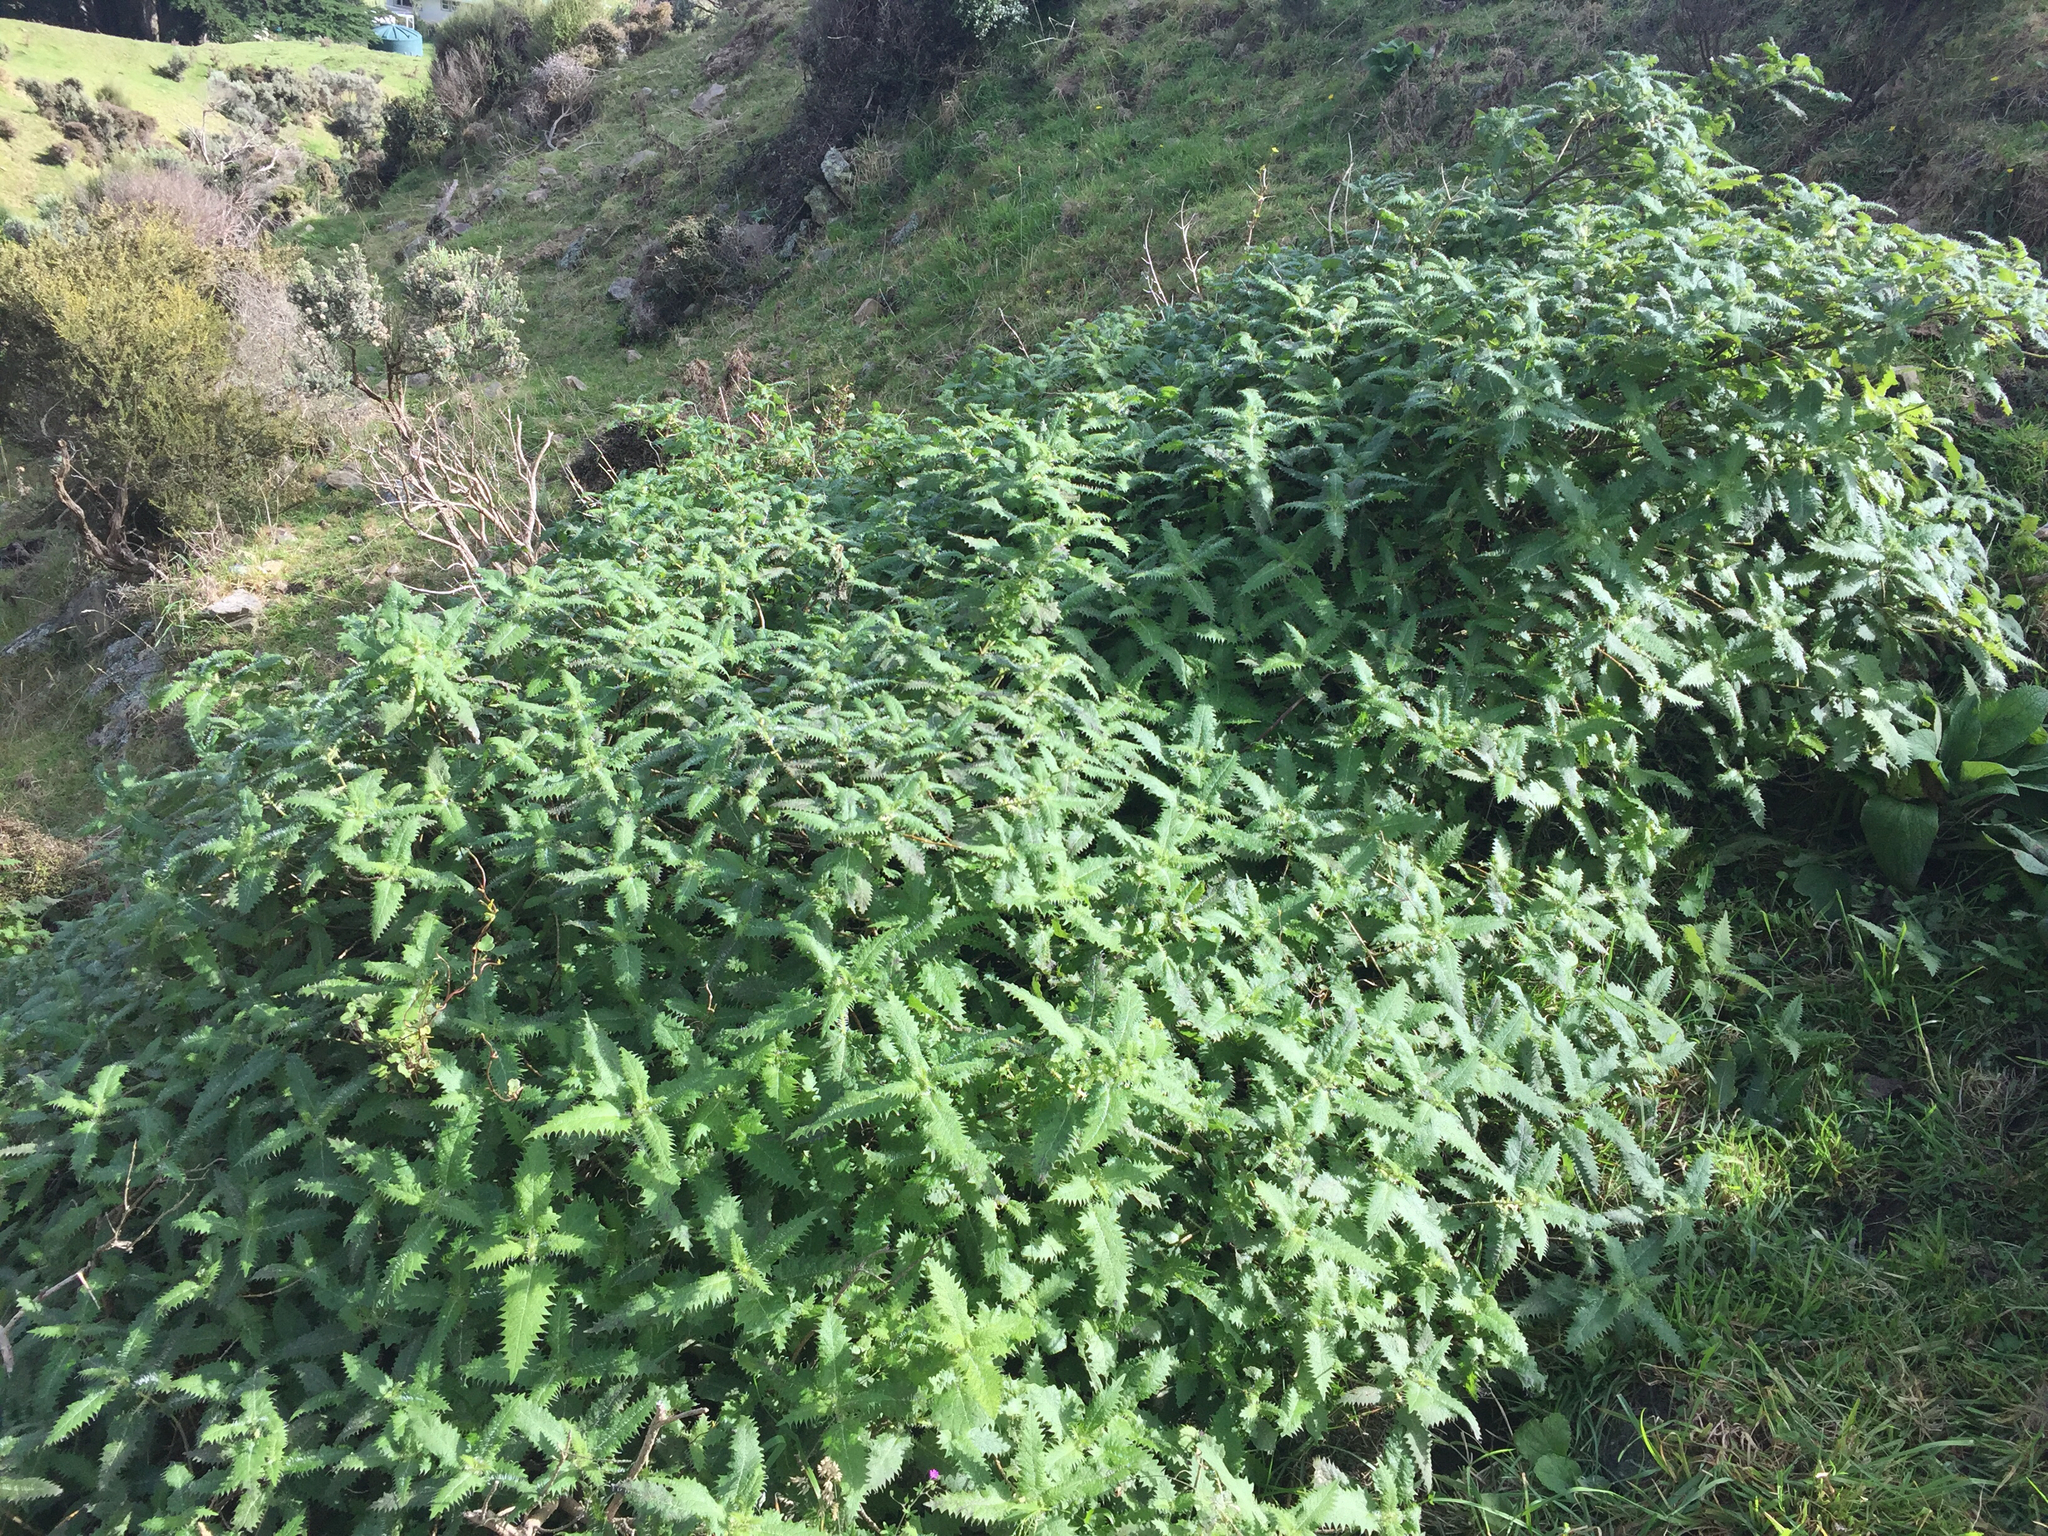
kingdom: Plantae
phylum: Tracheophyta
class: Magnoliopsida
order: Rosales
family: Urticaceae
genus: Urtica
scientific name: Urtica ferox
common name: Tree nettle
